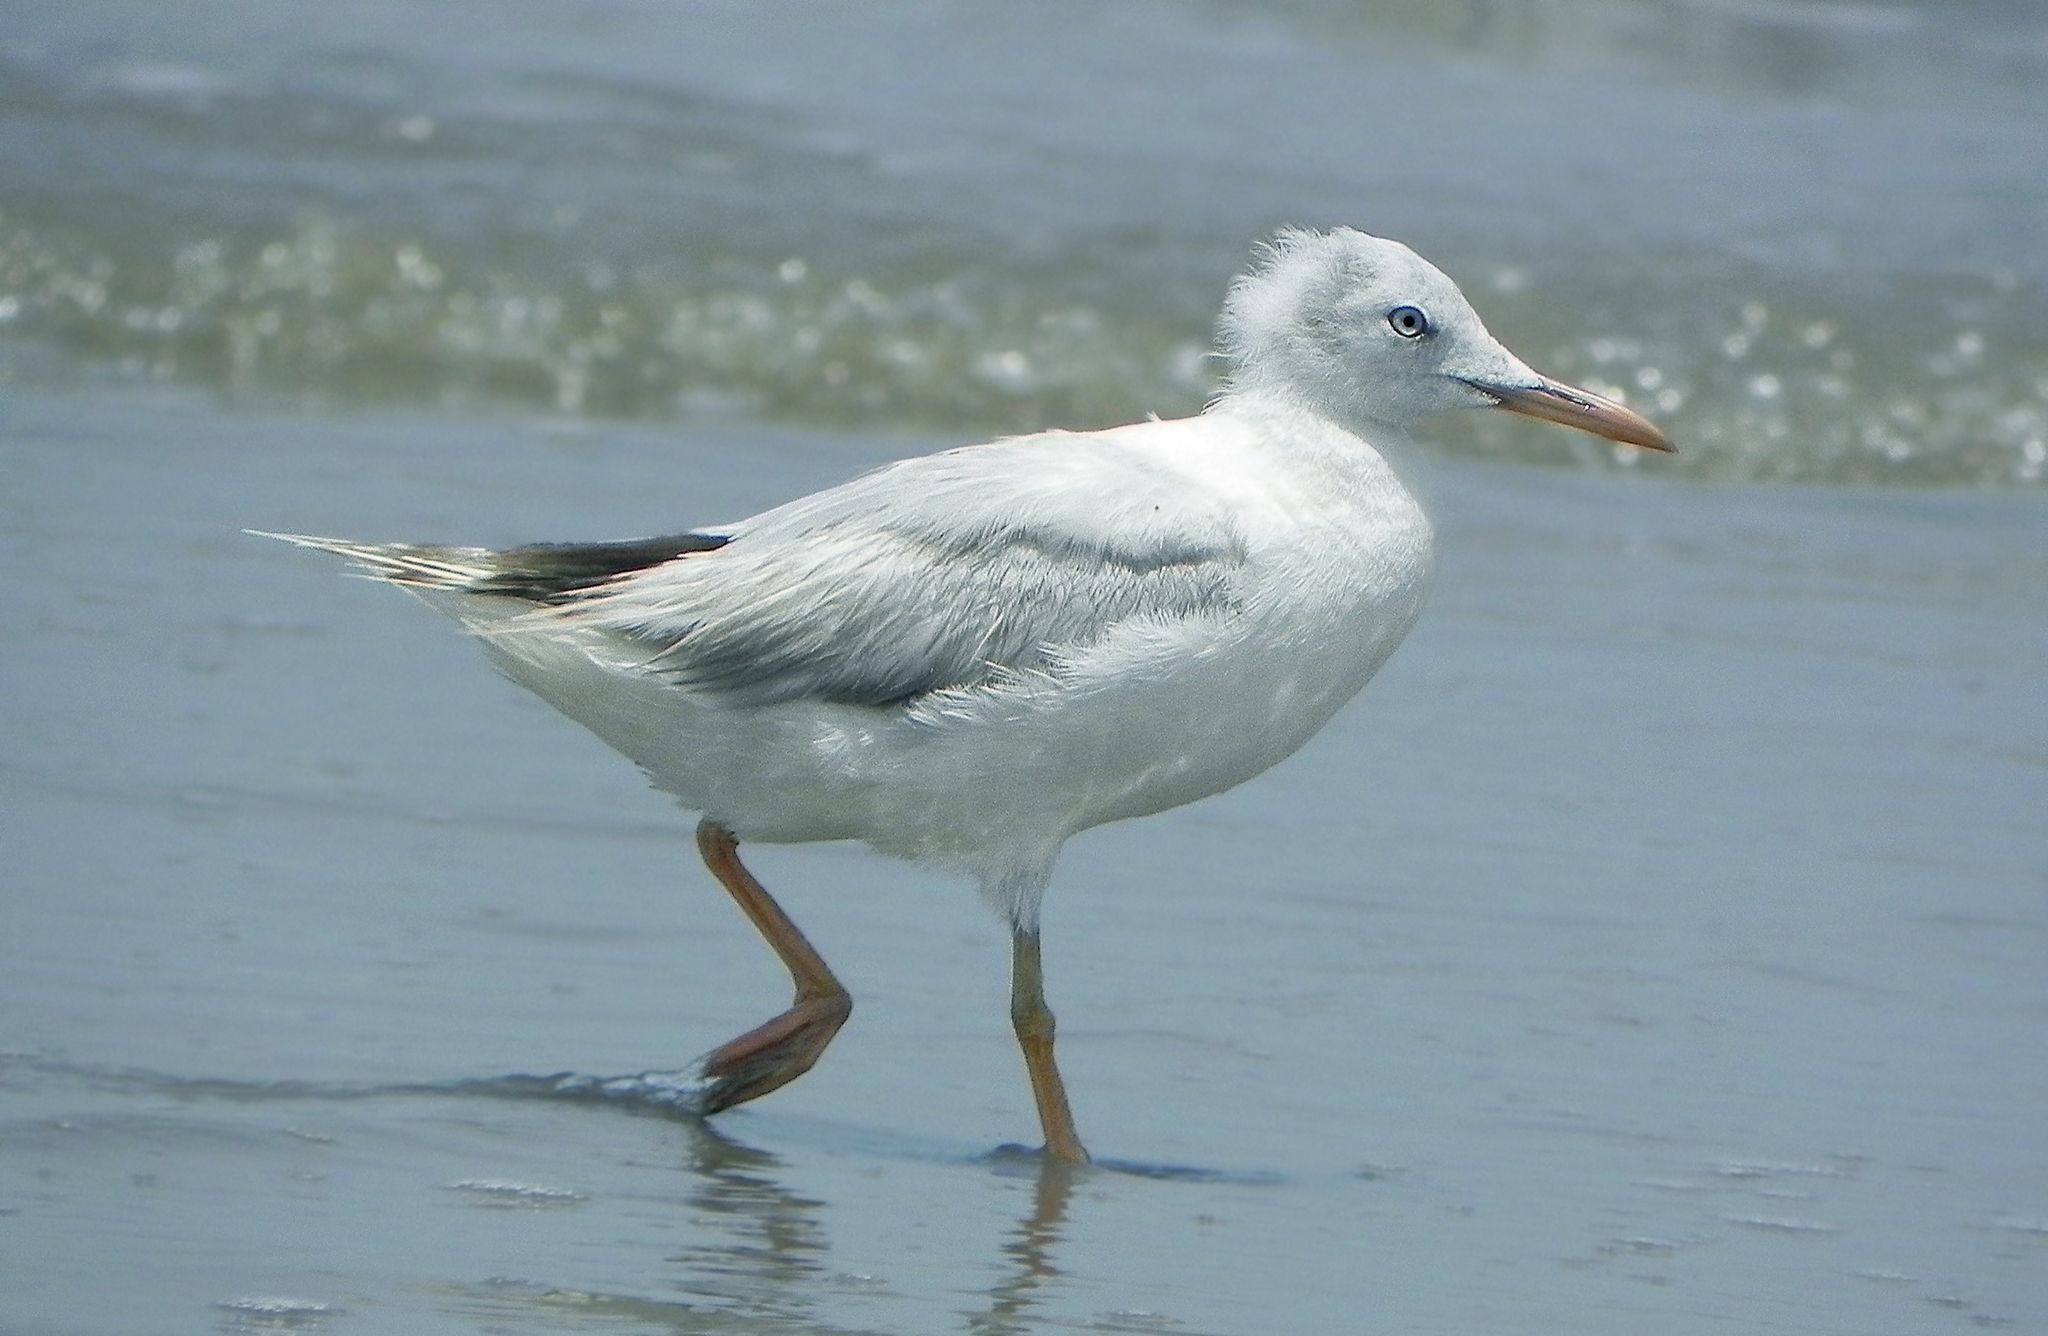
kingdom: Animalia
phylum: Chordata
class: Aves
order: Charadriiformes
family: Laridae
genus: Chroicocephalus
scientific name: Chroicocephalus genei
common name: Slender-billed gull
